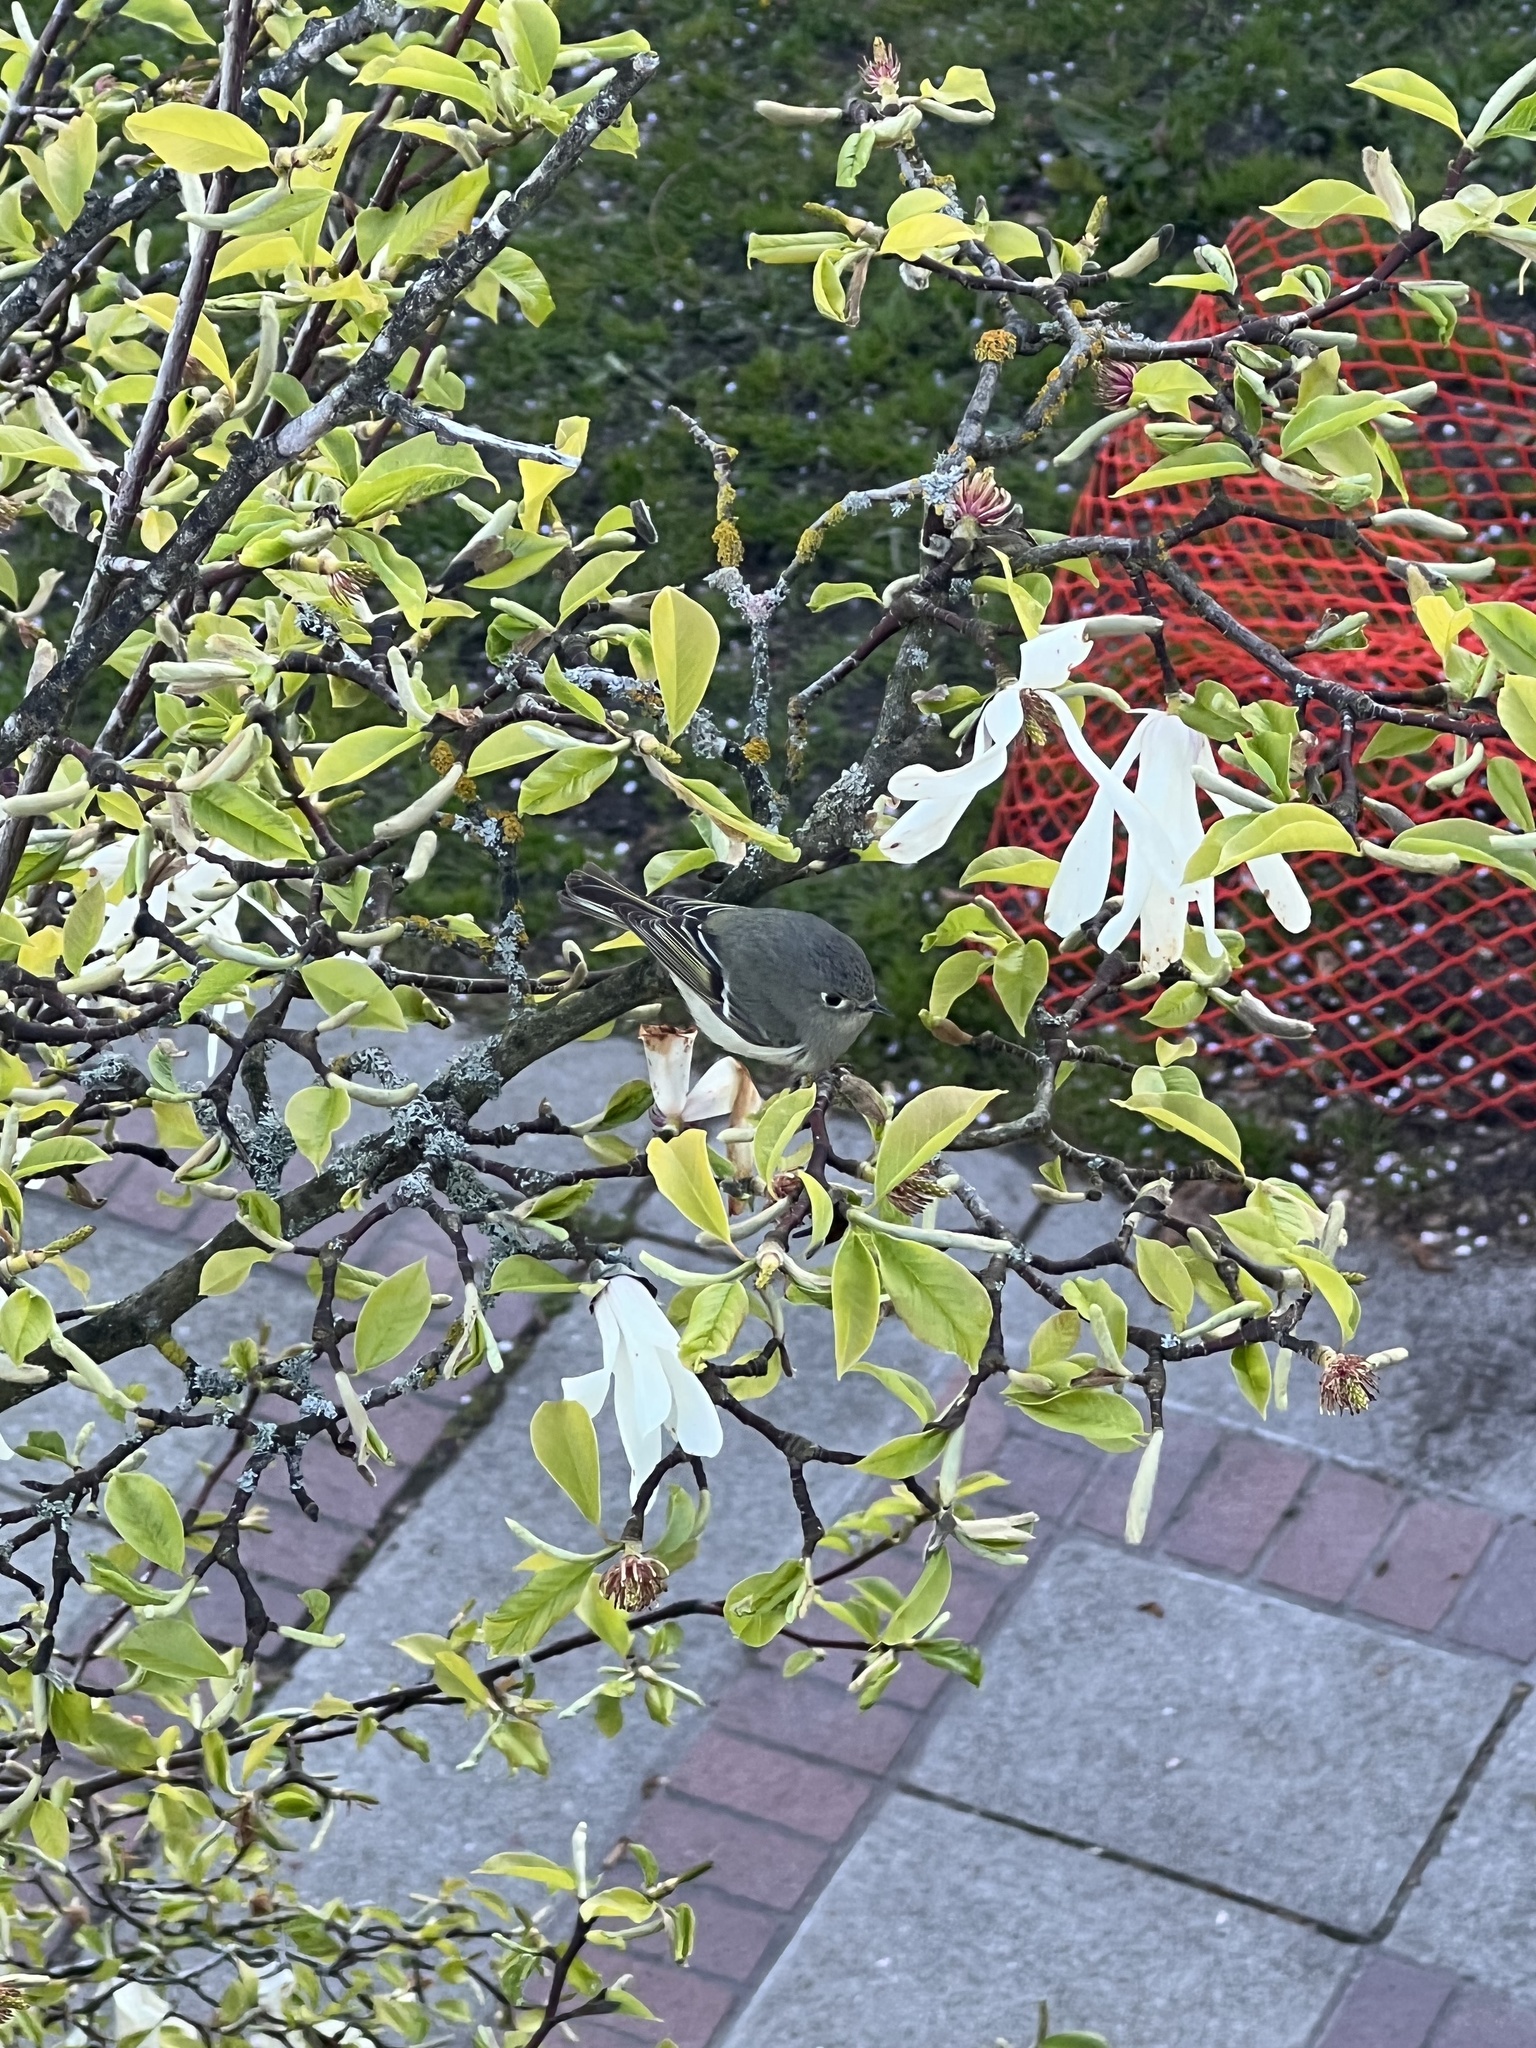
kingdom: Animalia
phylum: Chordata
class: Aves
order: Passeriformes
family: Regulidae
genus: Regulus
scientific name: Regulus calendula
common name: Ruby-crowned kinglet
